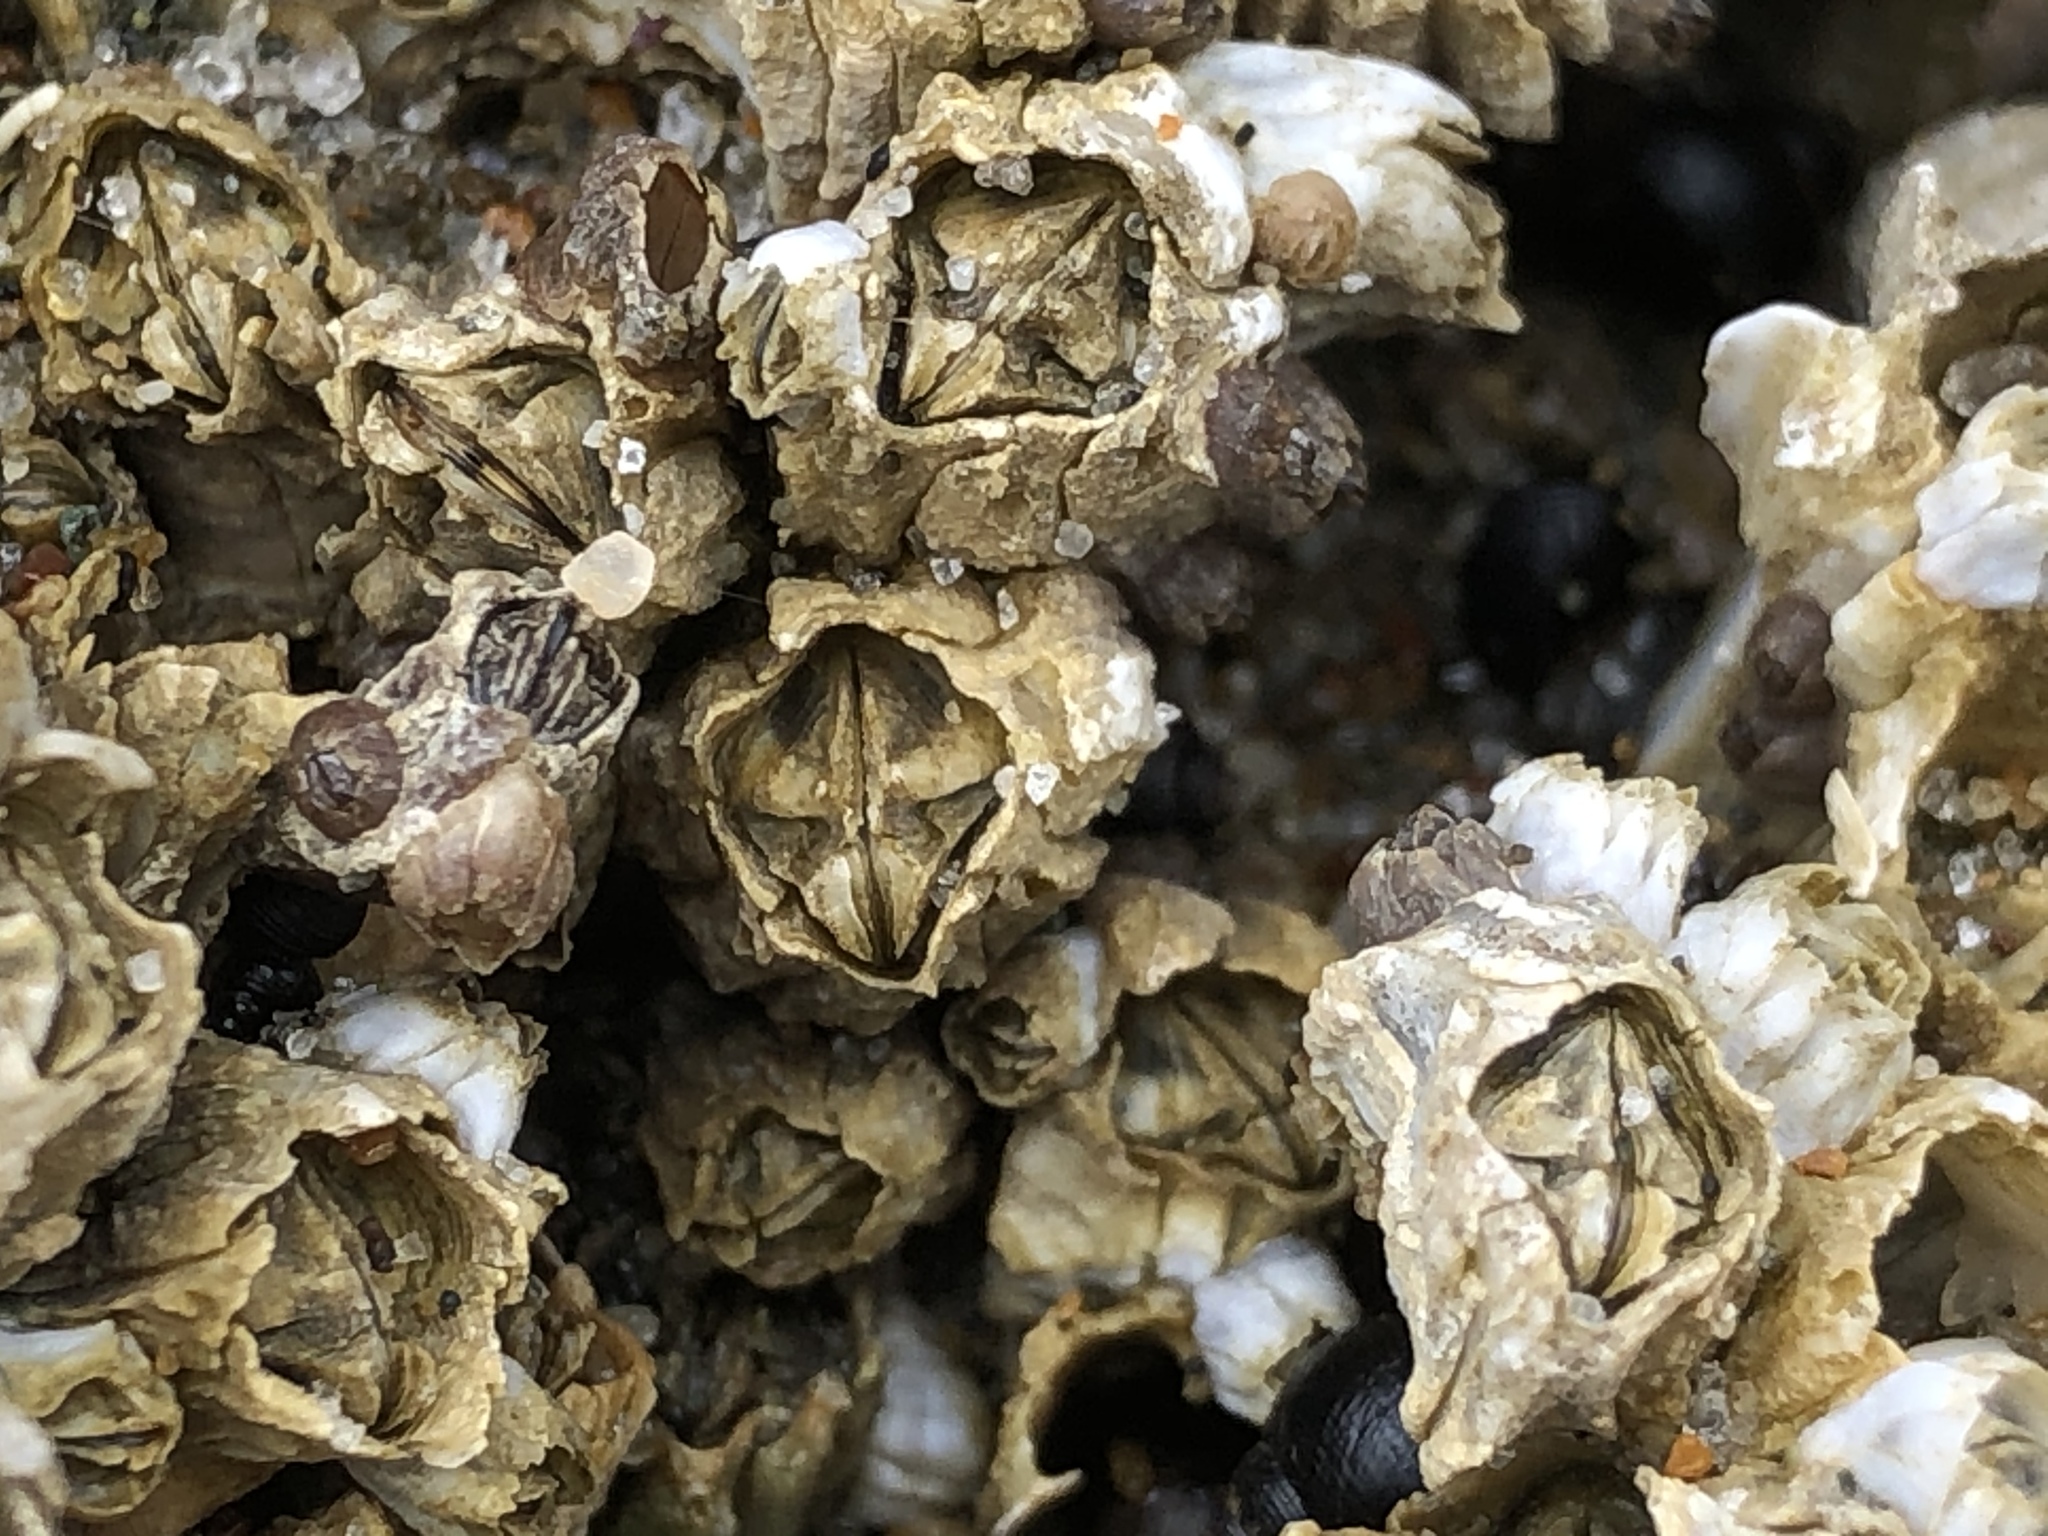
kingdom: Animalia
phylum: Arthropoda
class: Maxillopoda
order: Sessilia
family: Balanidae
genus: Balanus
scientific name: Balanus glandula
